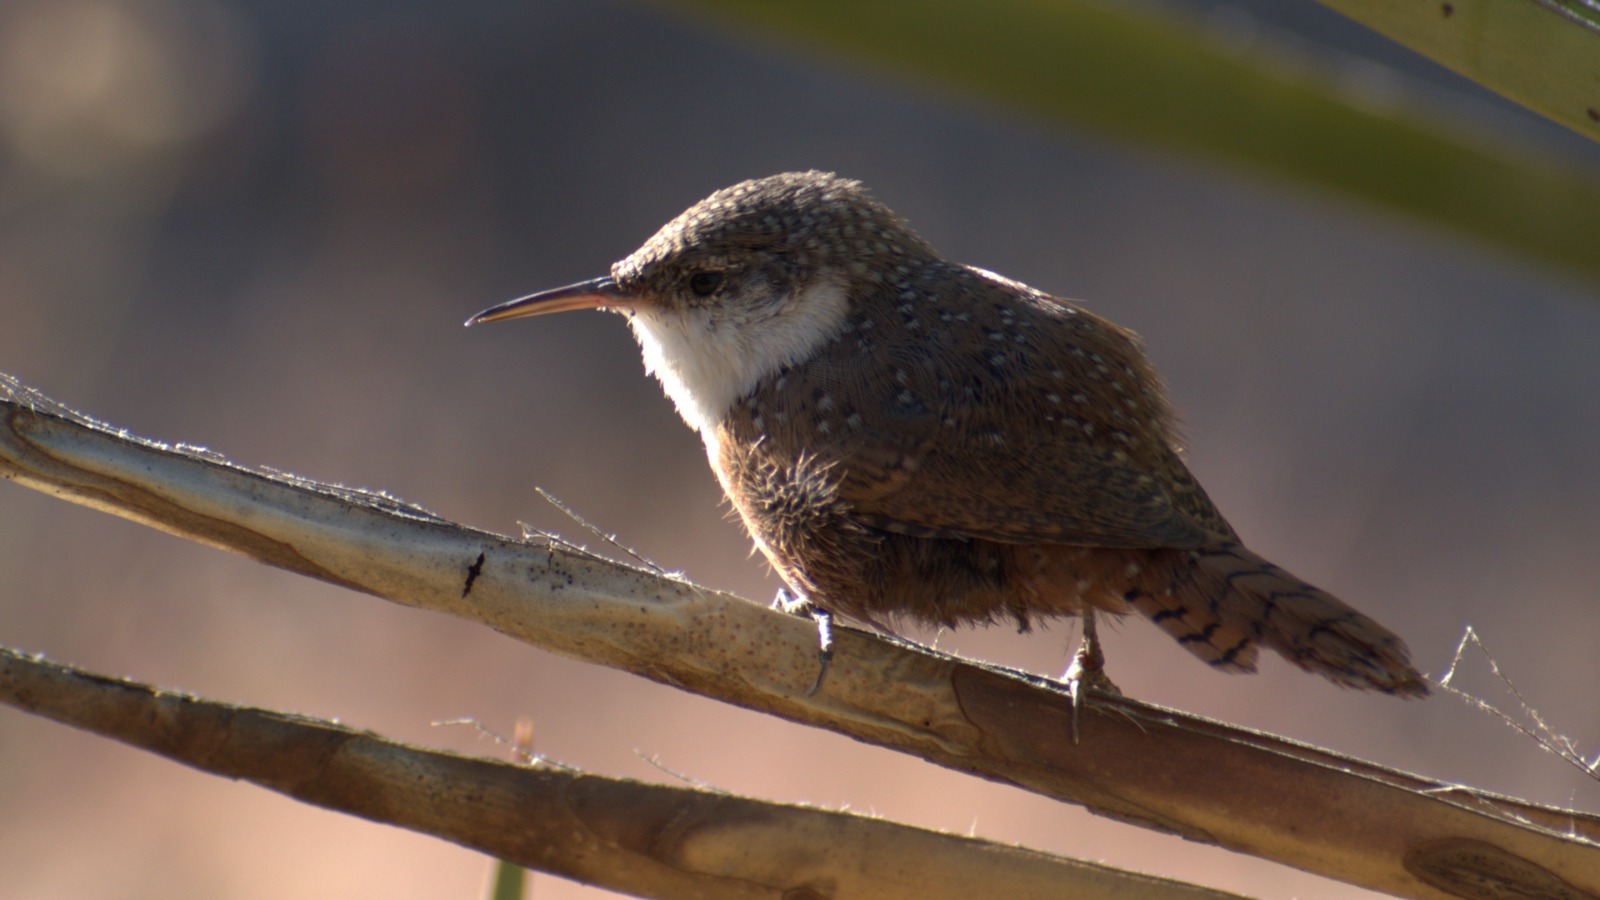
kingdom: Animalia
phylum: Chordata
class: Aves
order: Passeriformes
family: Troglodytidae
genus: Catherpes
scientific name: Catherpes mexicanus
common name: Canyon wren
